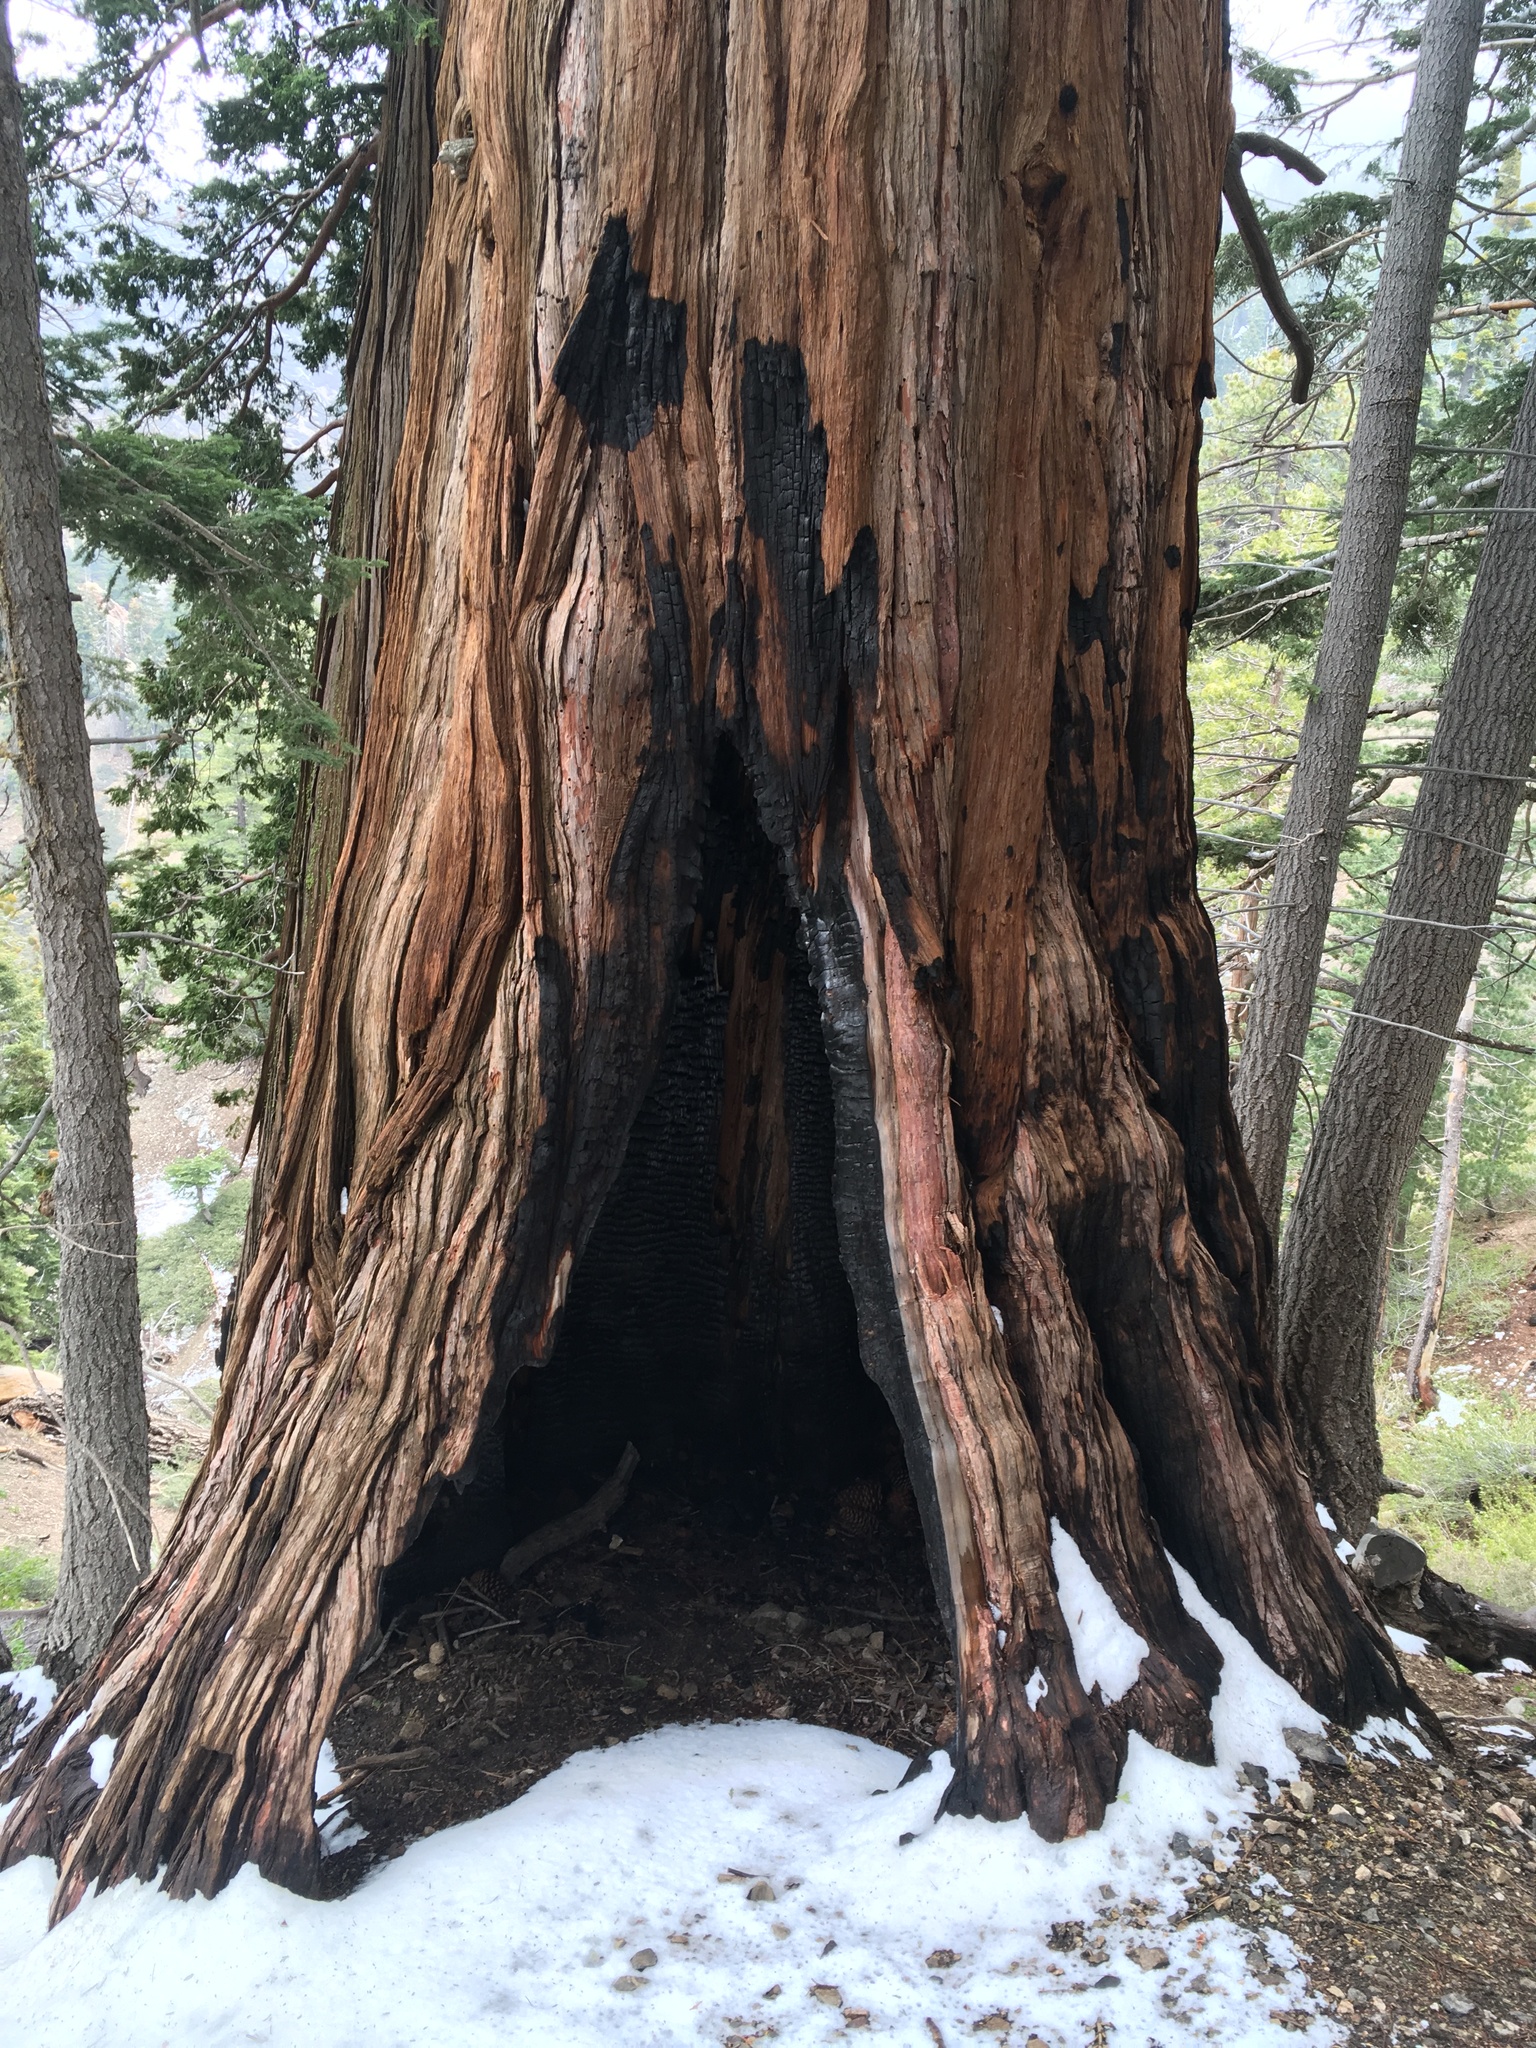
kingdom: Plantae
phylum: Tracheophyta
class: Pinopsida
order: Pinales
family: Cupressaceae
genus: Calocedrus
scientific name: Calocedrus decurrens
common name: Californian incense-cedar
